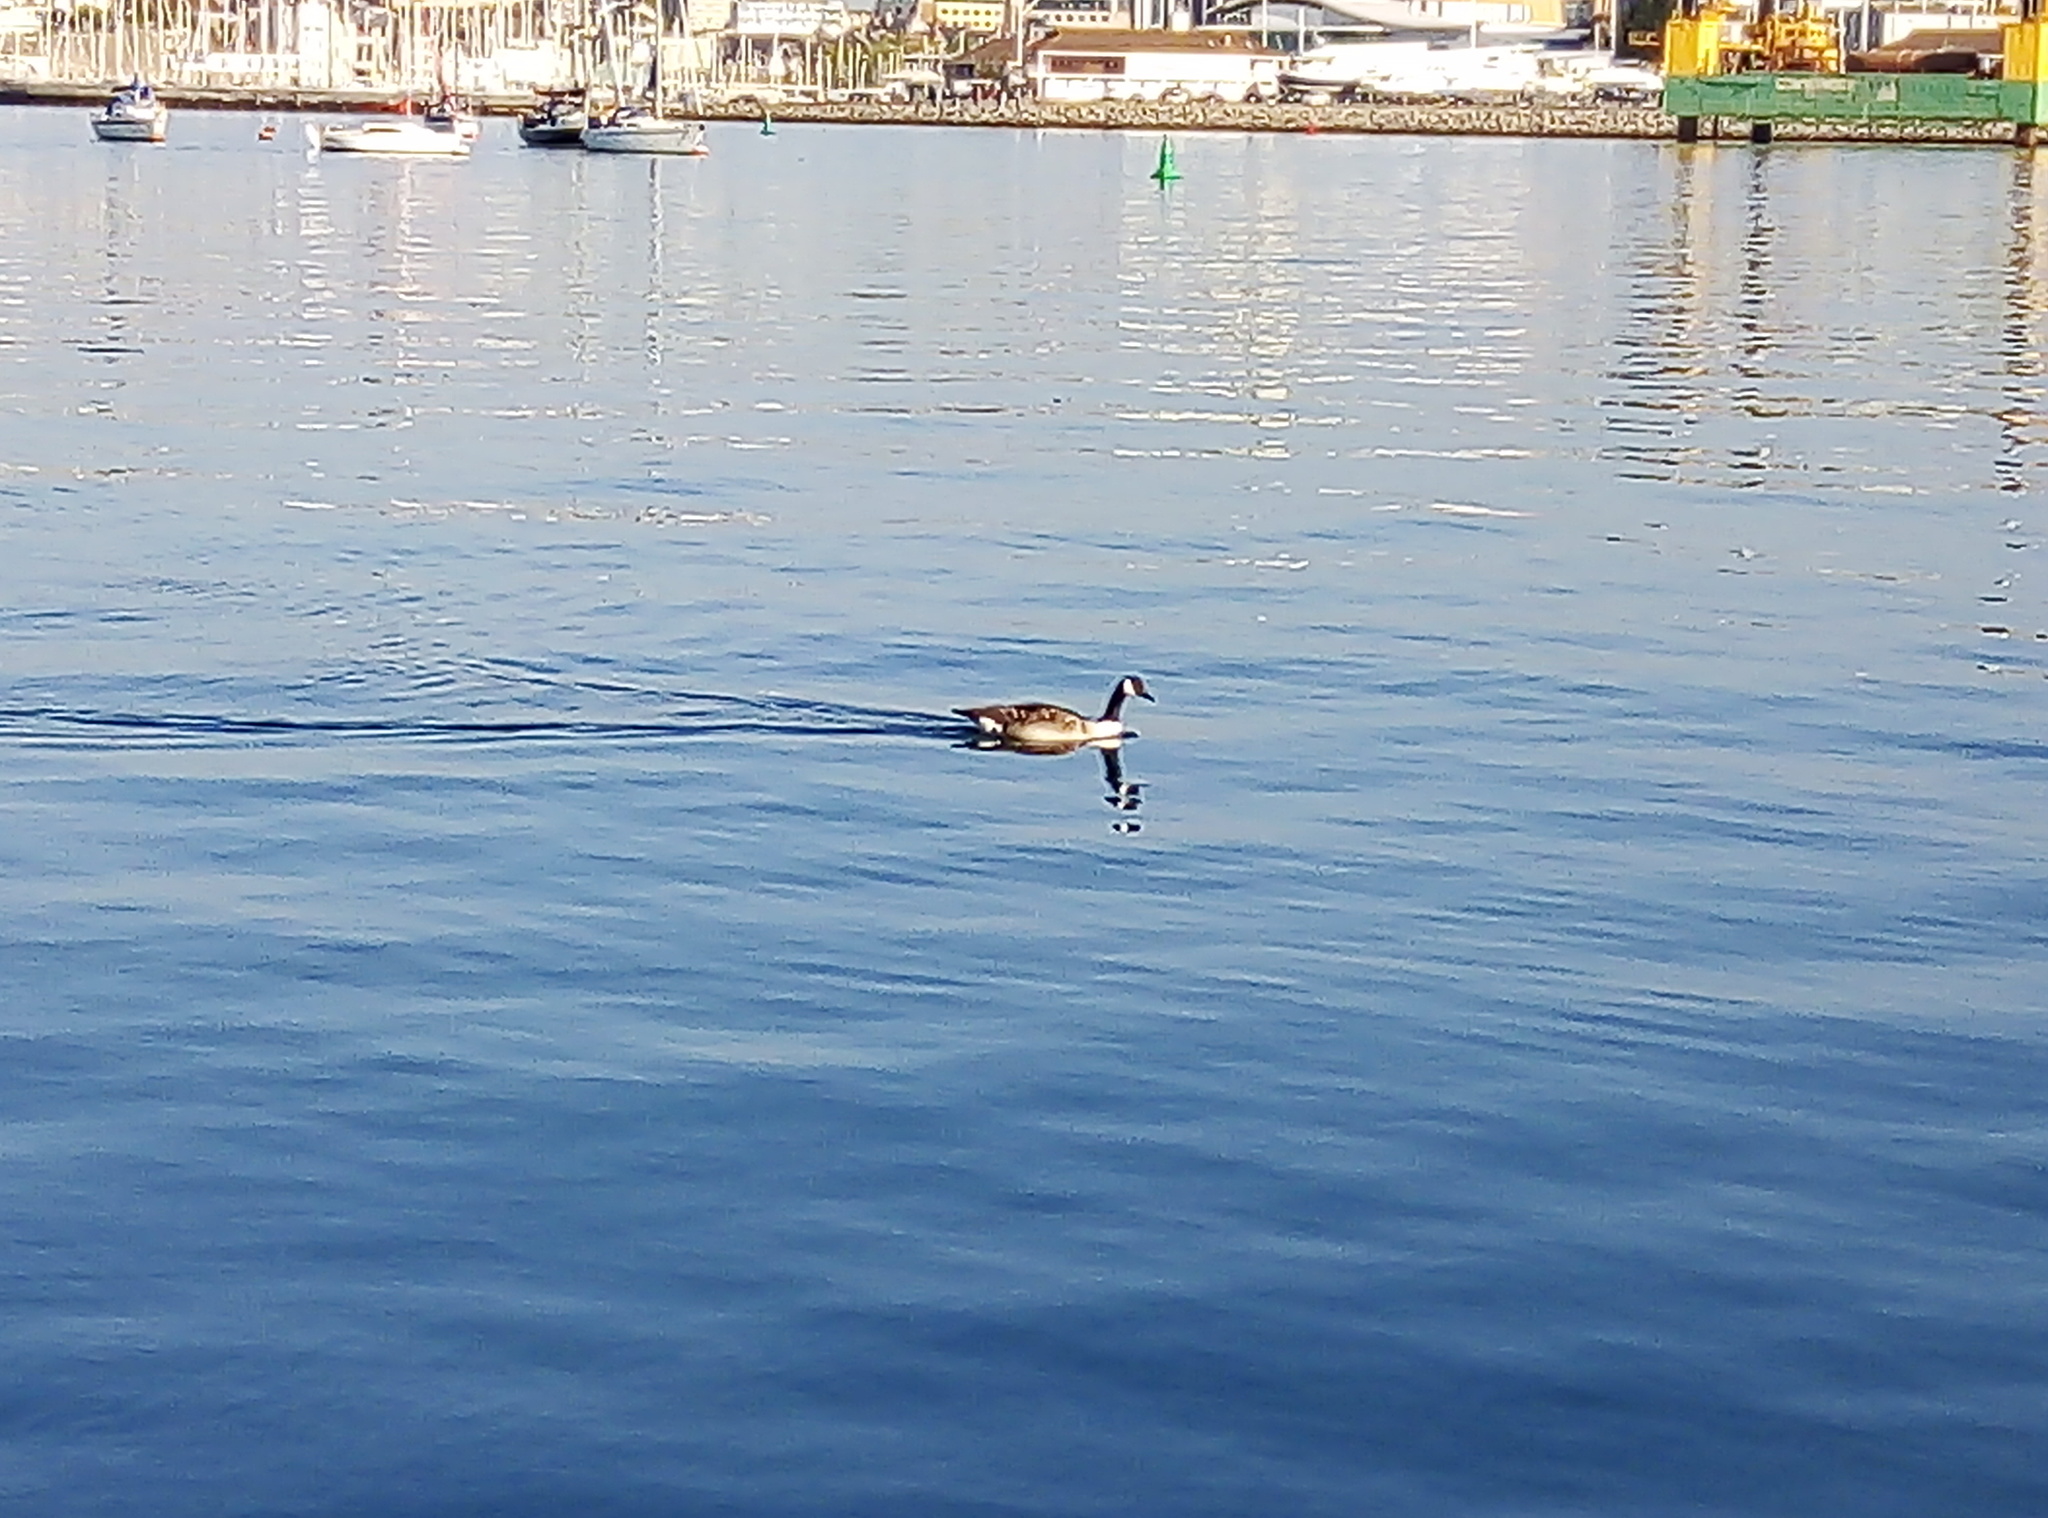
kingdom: Animalia
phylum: Chordata
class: Aves
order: Anseriformes
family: Anatidae
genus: Branta
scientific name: Branta canadensis
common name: Canada goose
